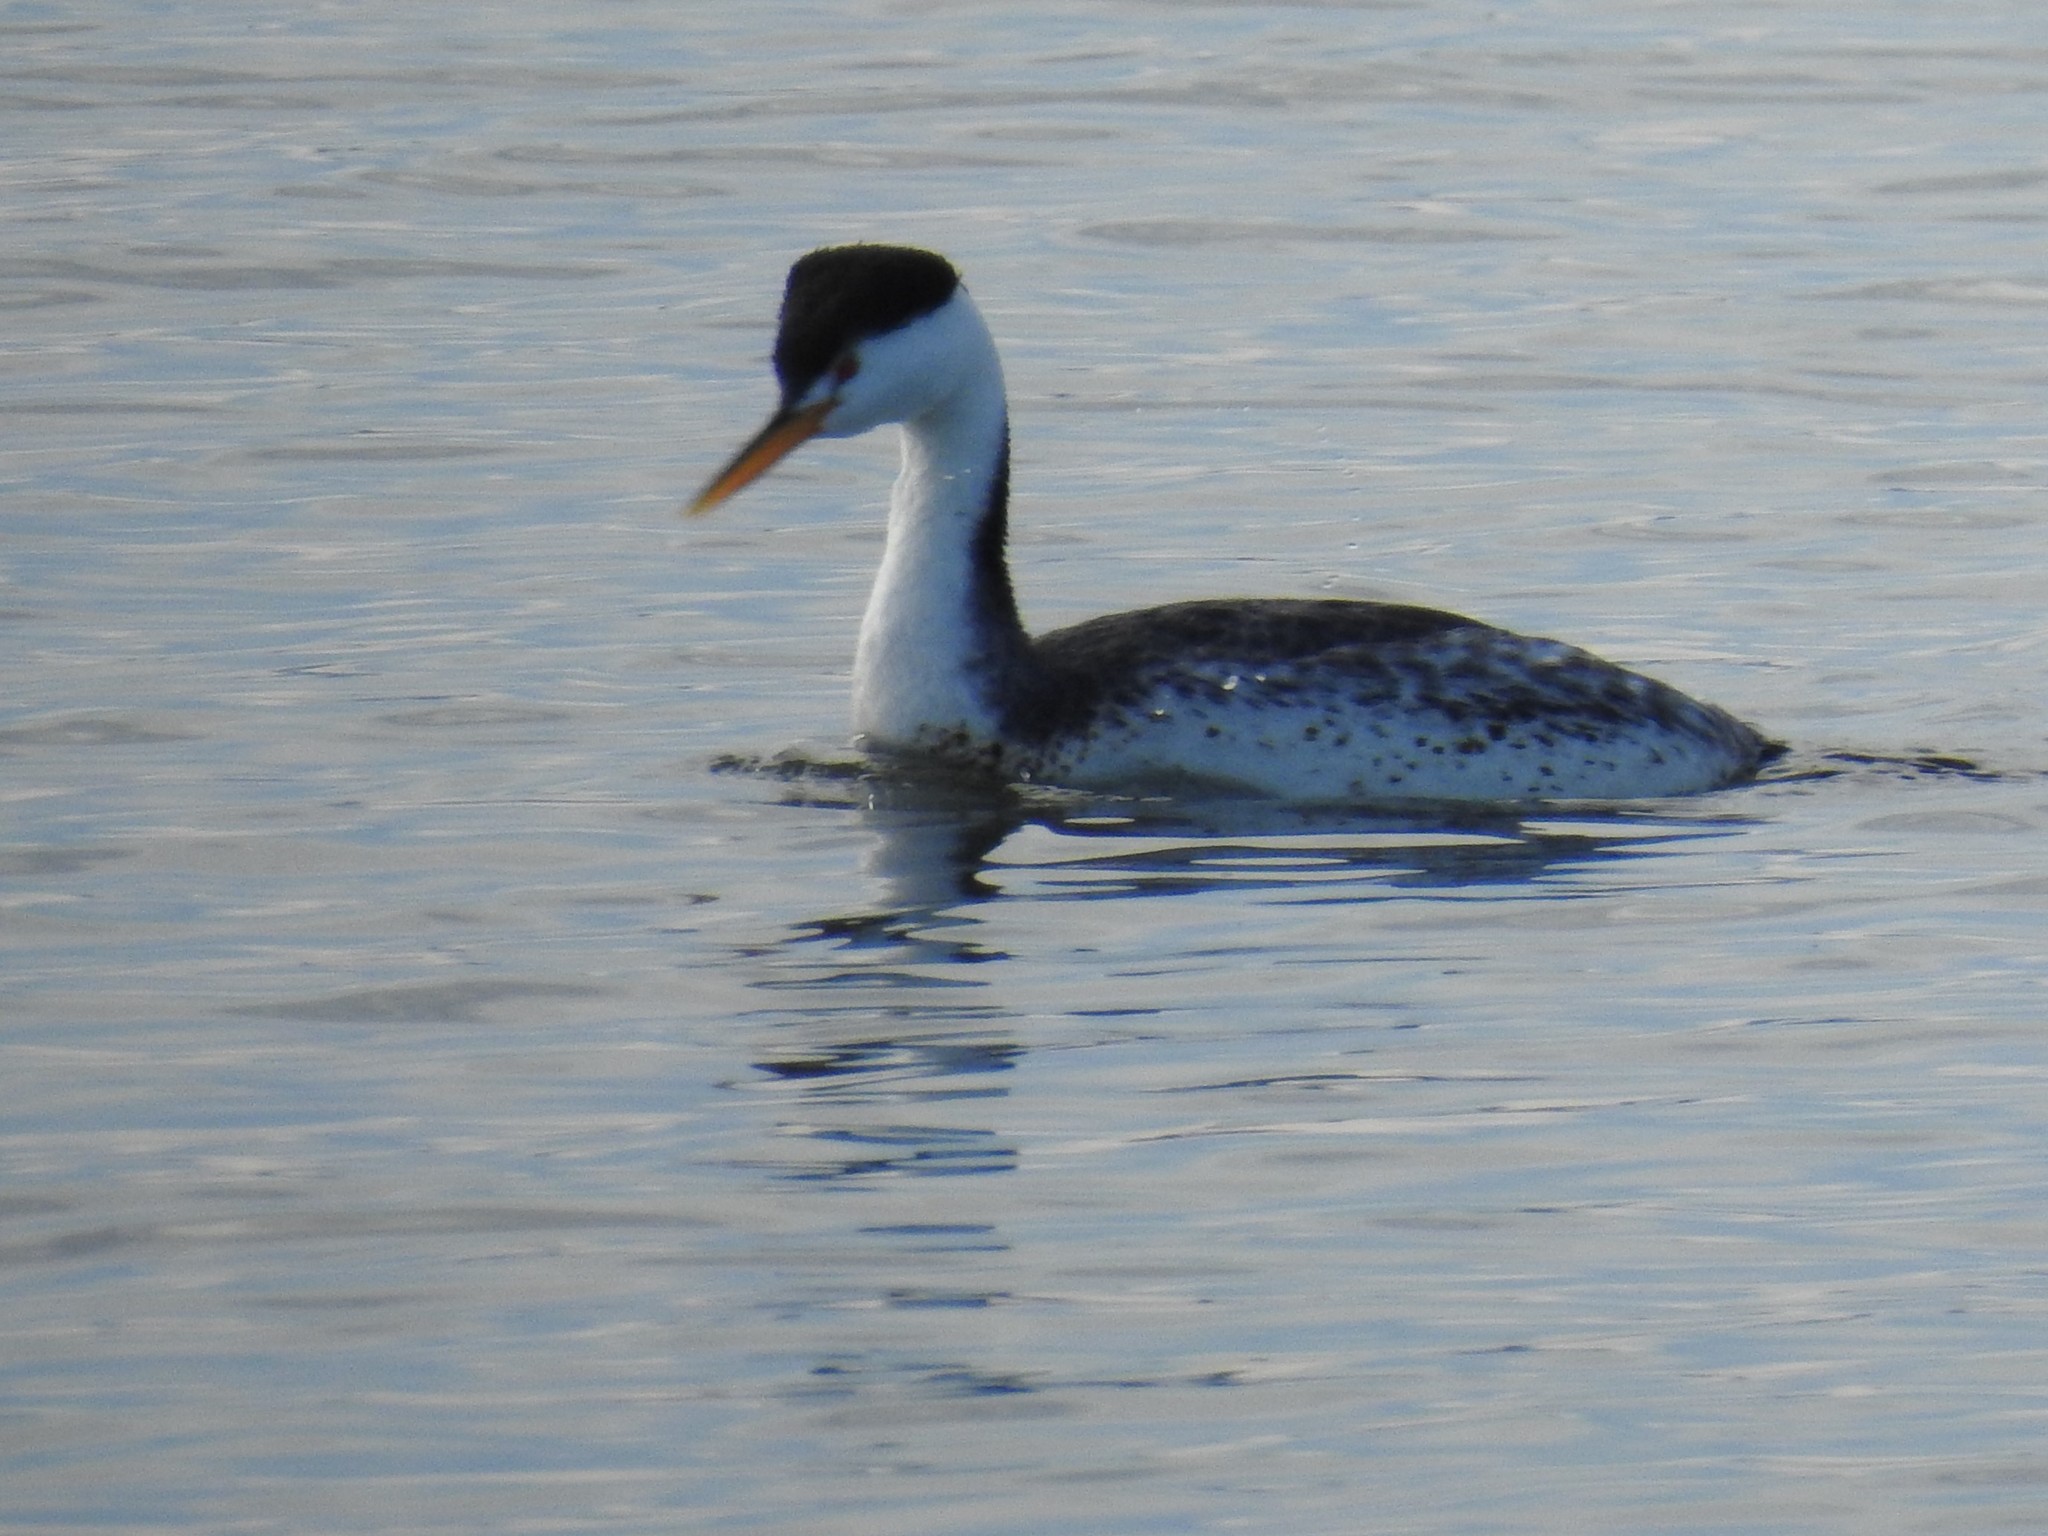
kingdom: Animalia
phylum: Chordata
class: Aves
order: Podicipediformes
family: Podicipedidae
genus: Aechmophorus
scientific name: Aechmophorus clarkii
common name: Clark's grebe
